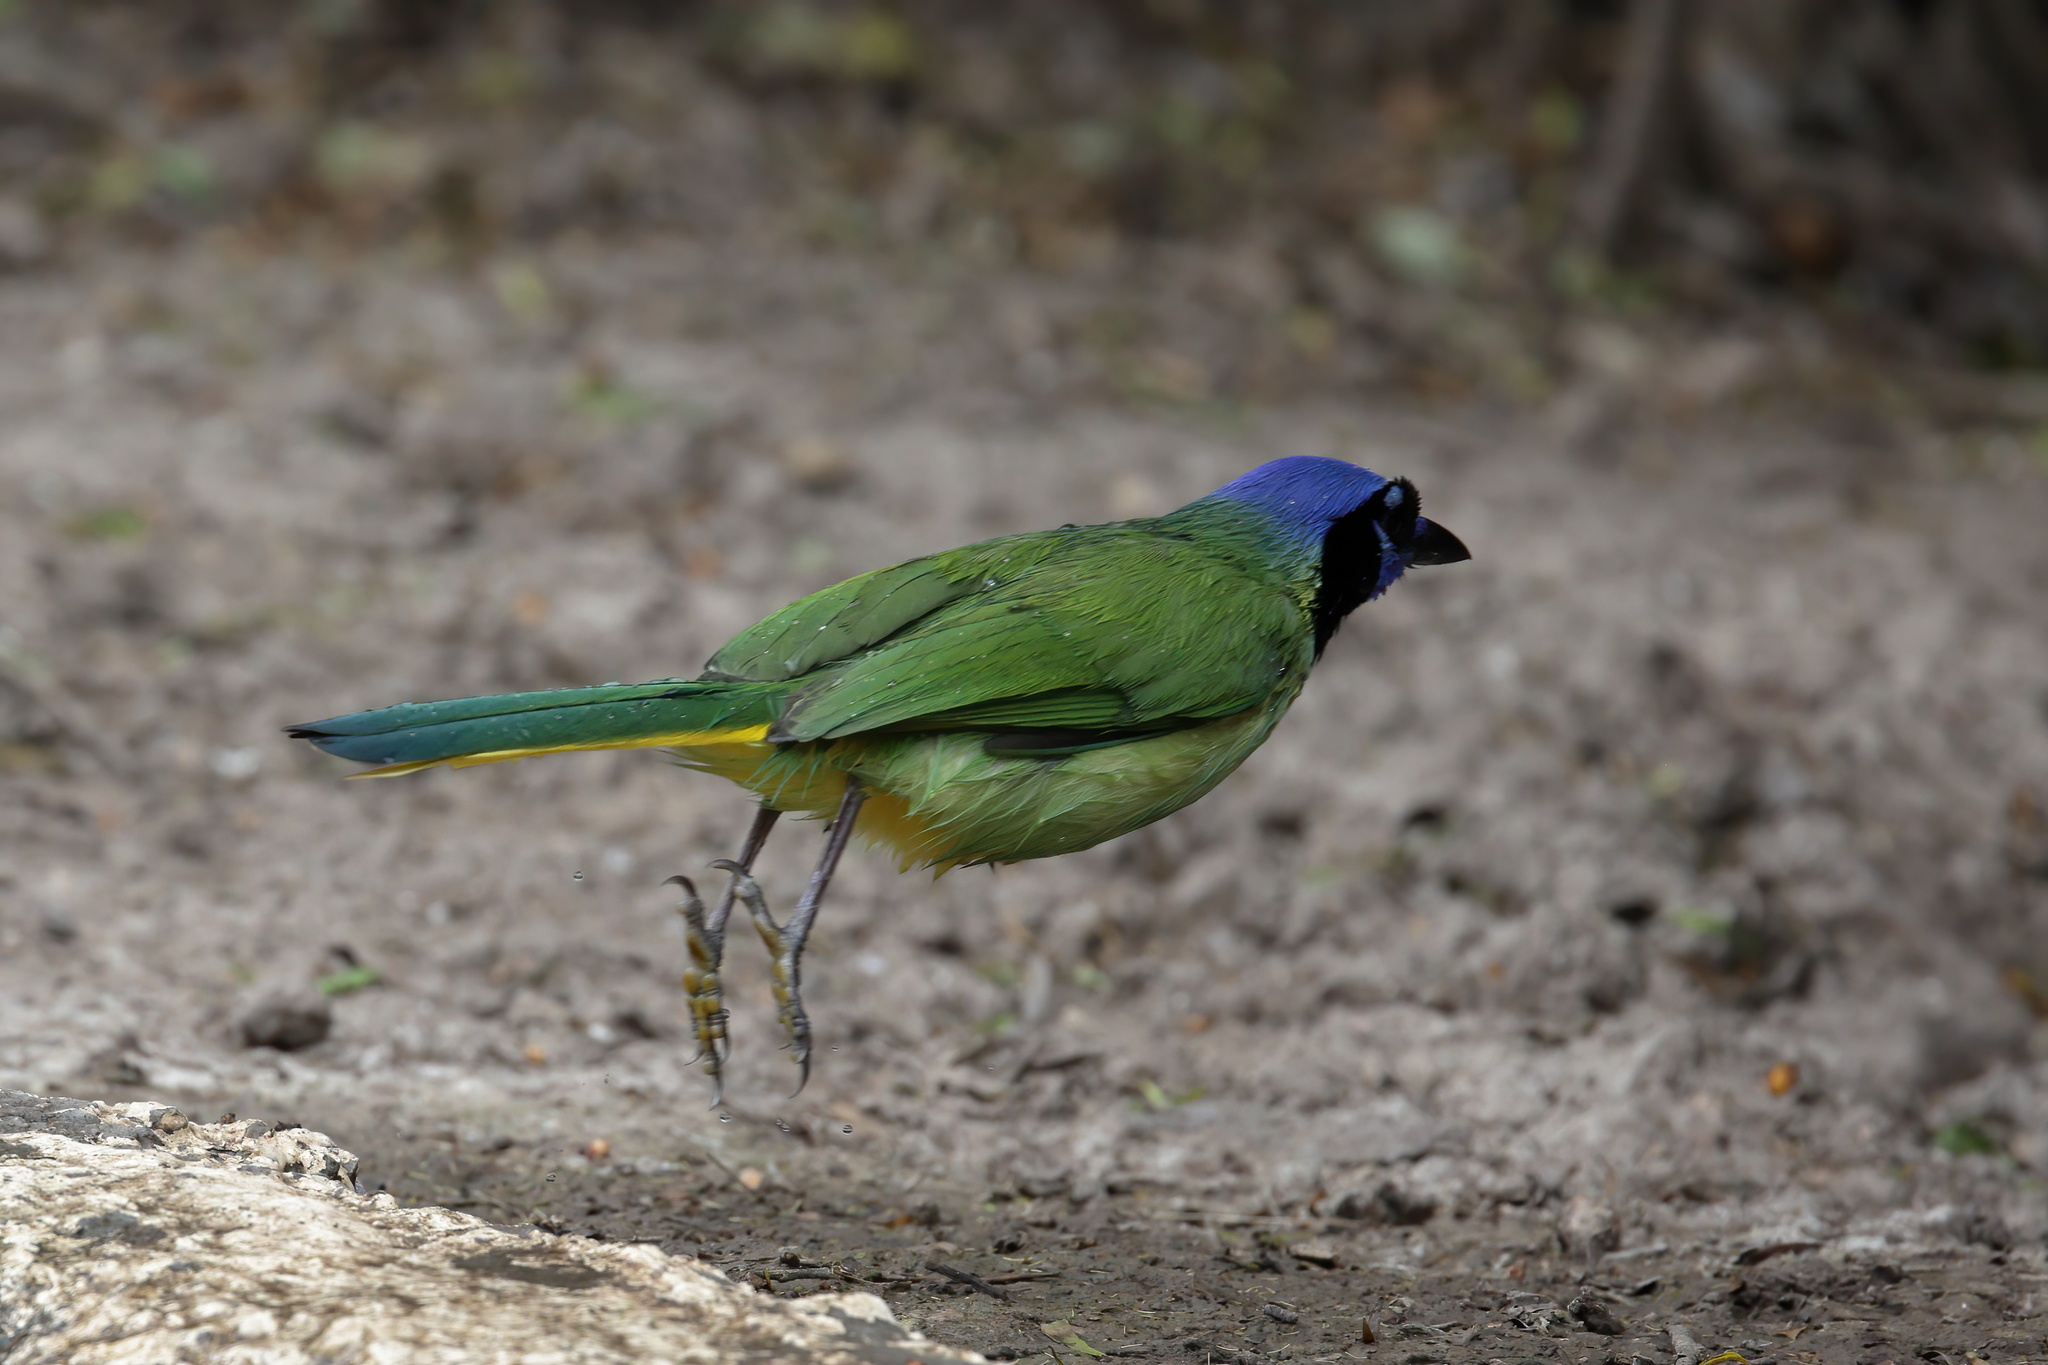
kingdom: Animalia
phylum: Chordata
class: Aves
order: Passeriformes
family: Corvidae
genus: Cyanocorax
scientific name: Cyanocorax yncas
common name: Green jay
